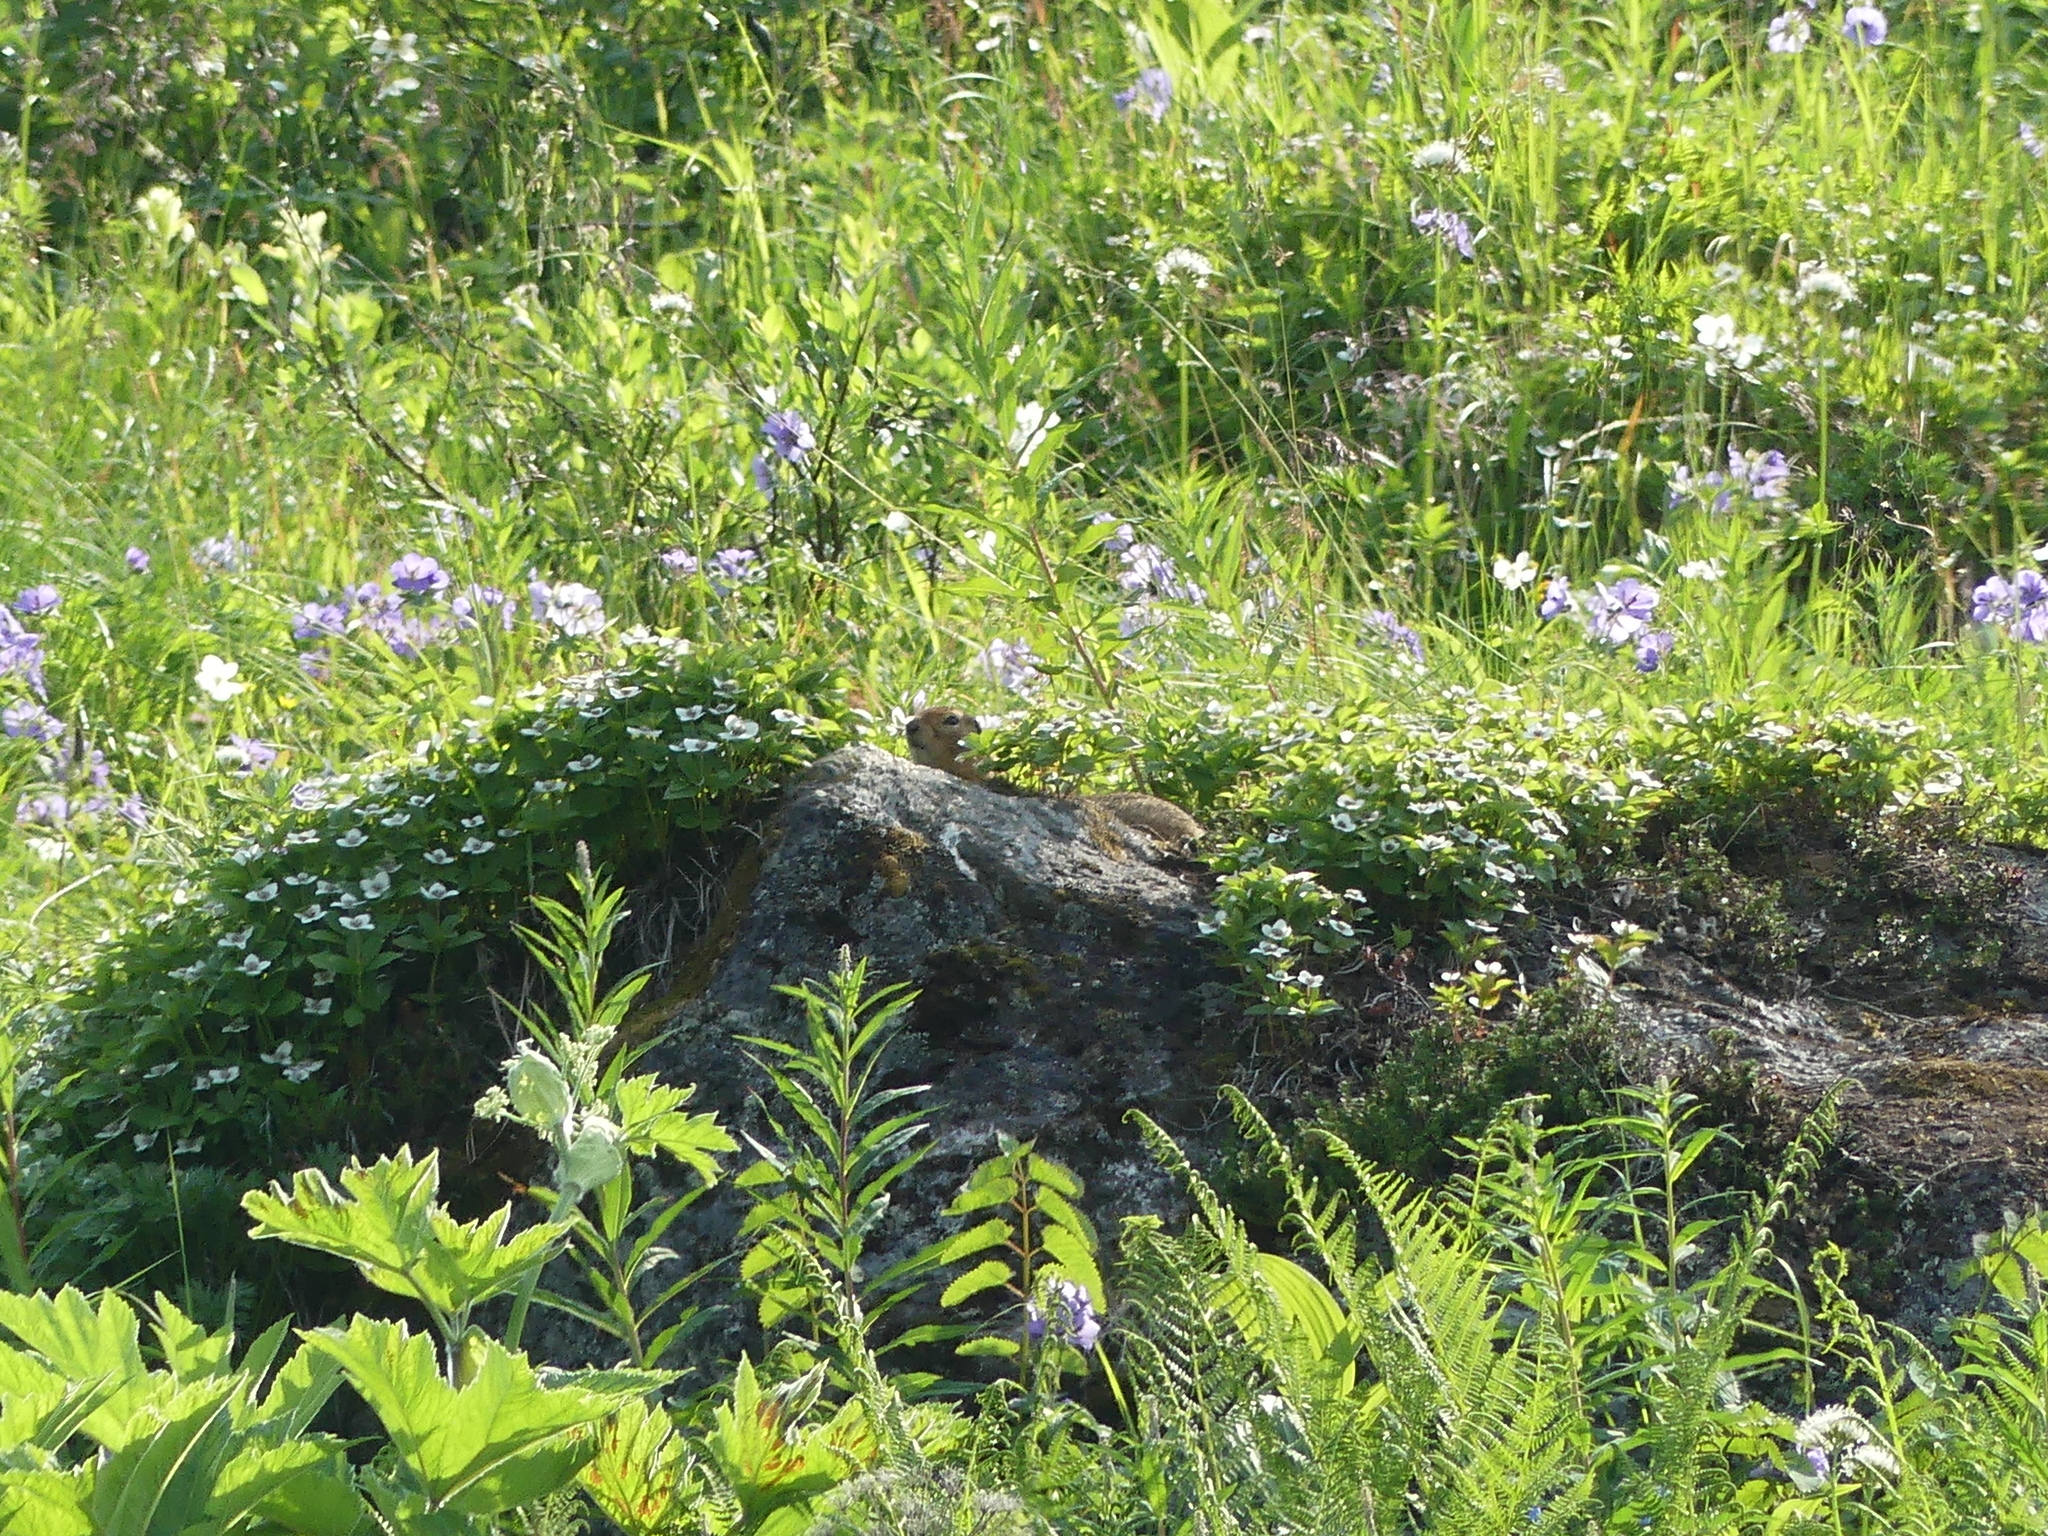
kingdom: Animalia
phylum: Chordata
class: Mammalia
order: Rodentia
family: Sciuridae
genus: Urocitellus
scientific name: Urocitellus parryii
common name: Arctic ground squirrel
